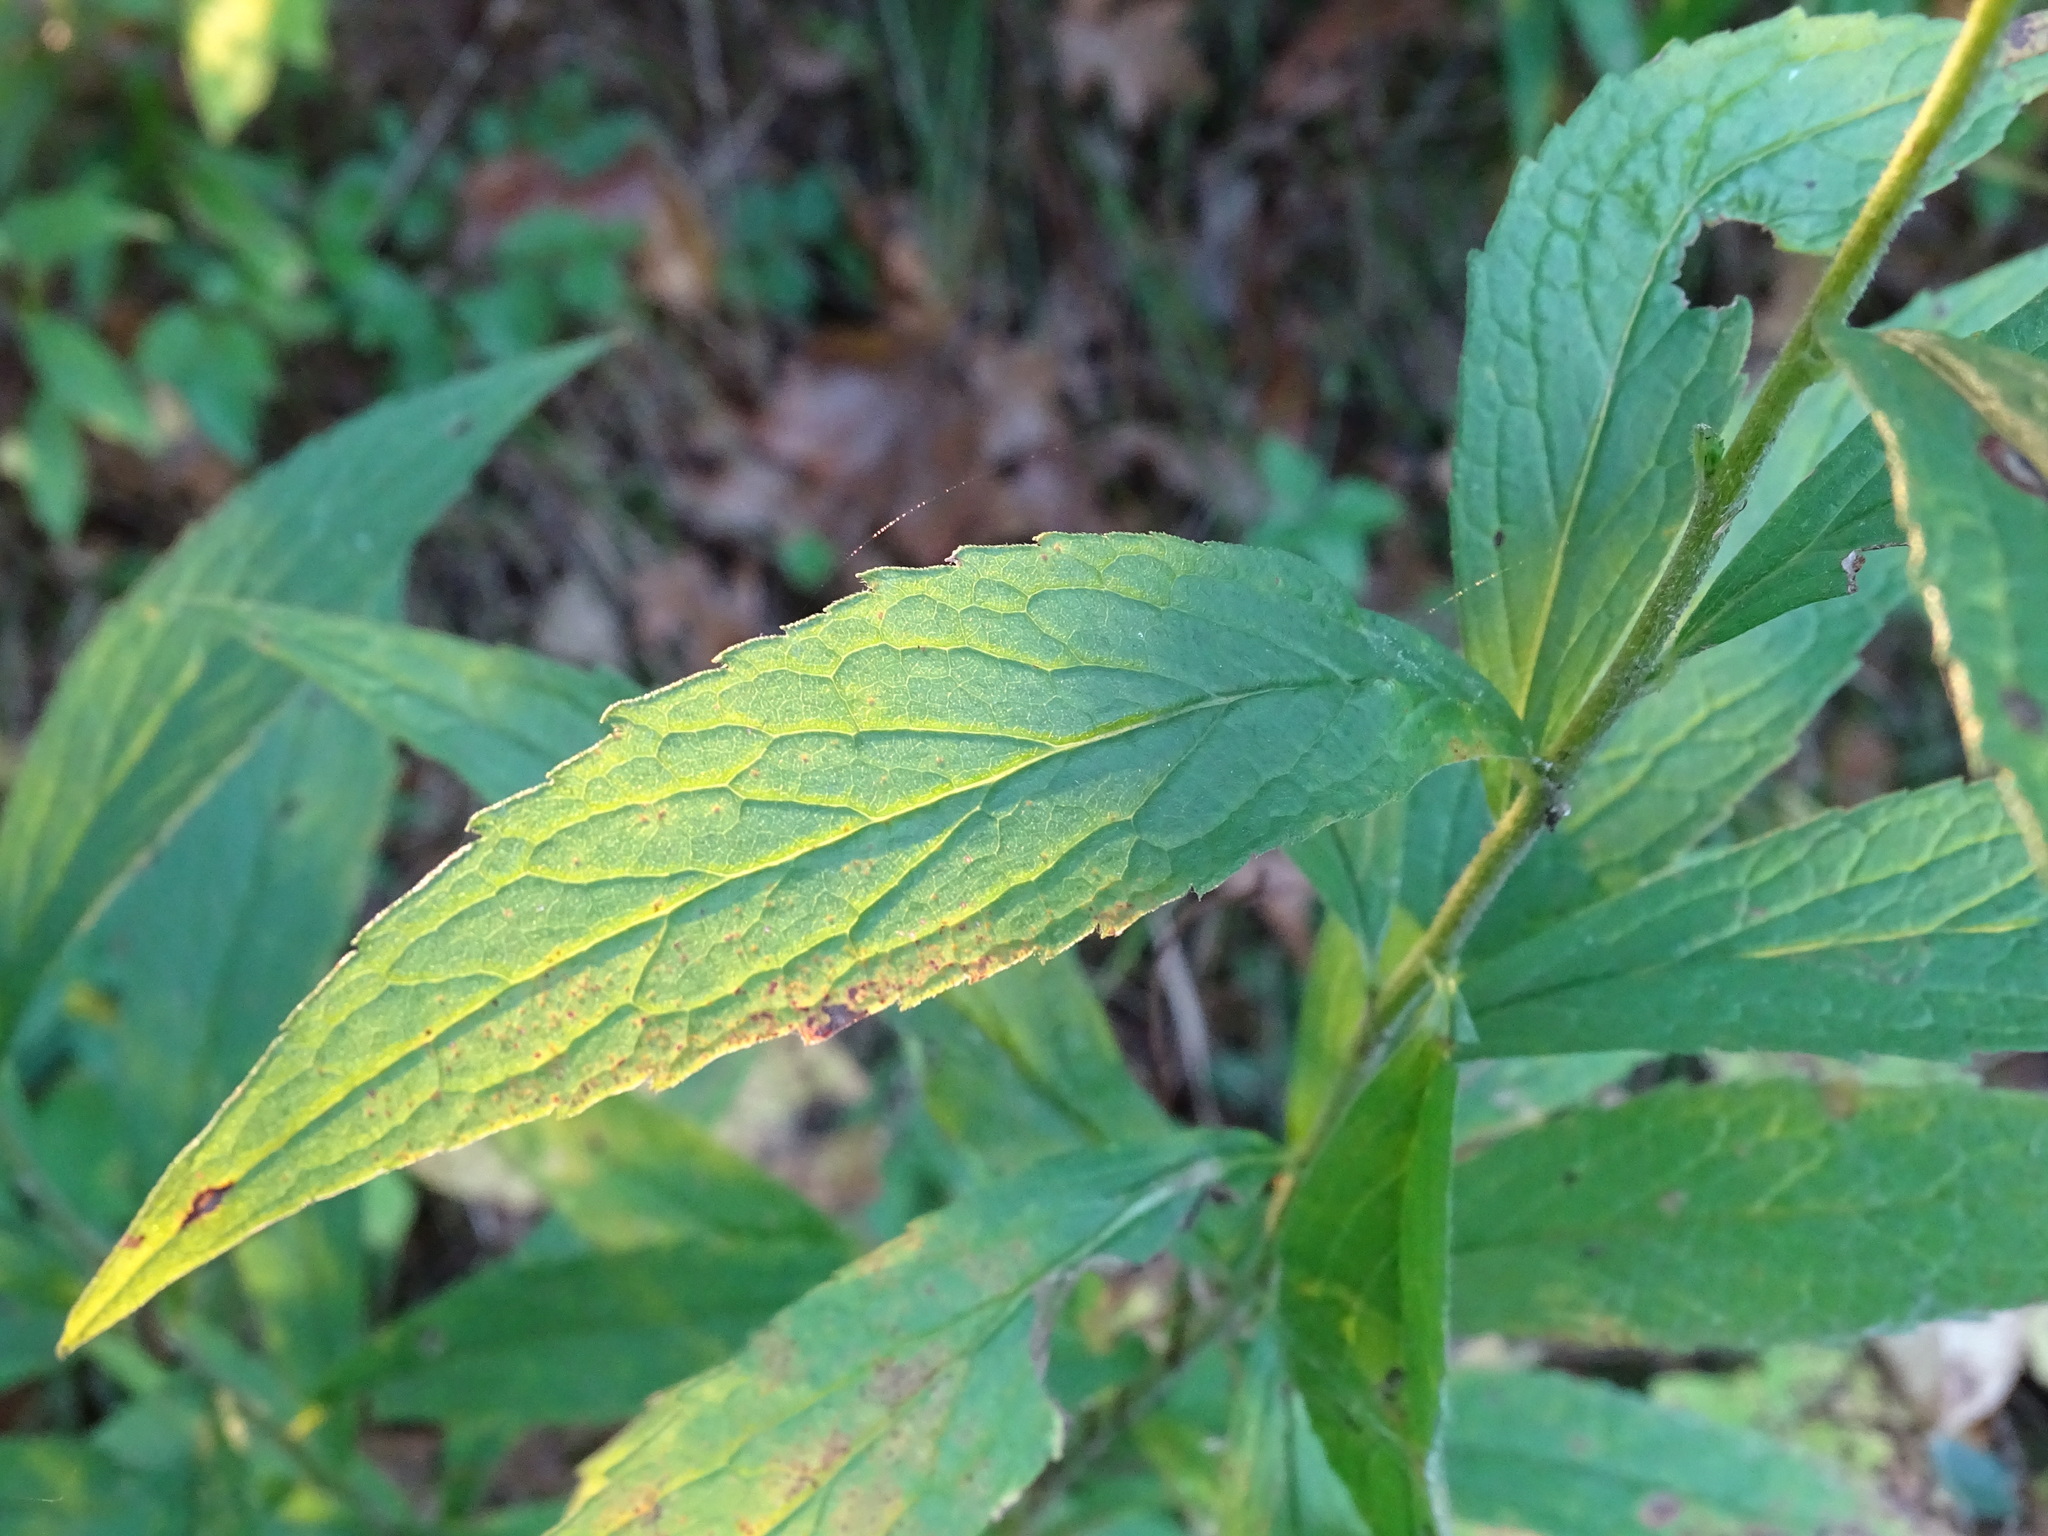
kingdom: Plantae
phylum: Tracheophyta
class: Magnoliopsida
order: Asterales
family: Asteraceae
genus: Solidago
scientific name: Solidago rugosa
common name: Rough-stemmed goldenrod
